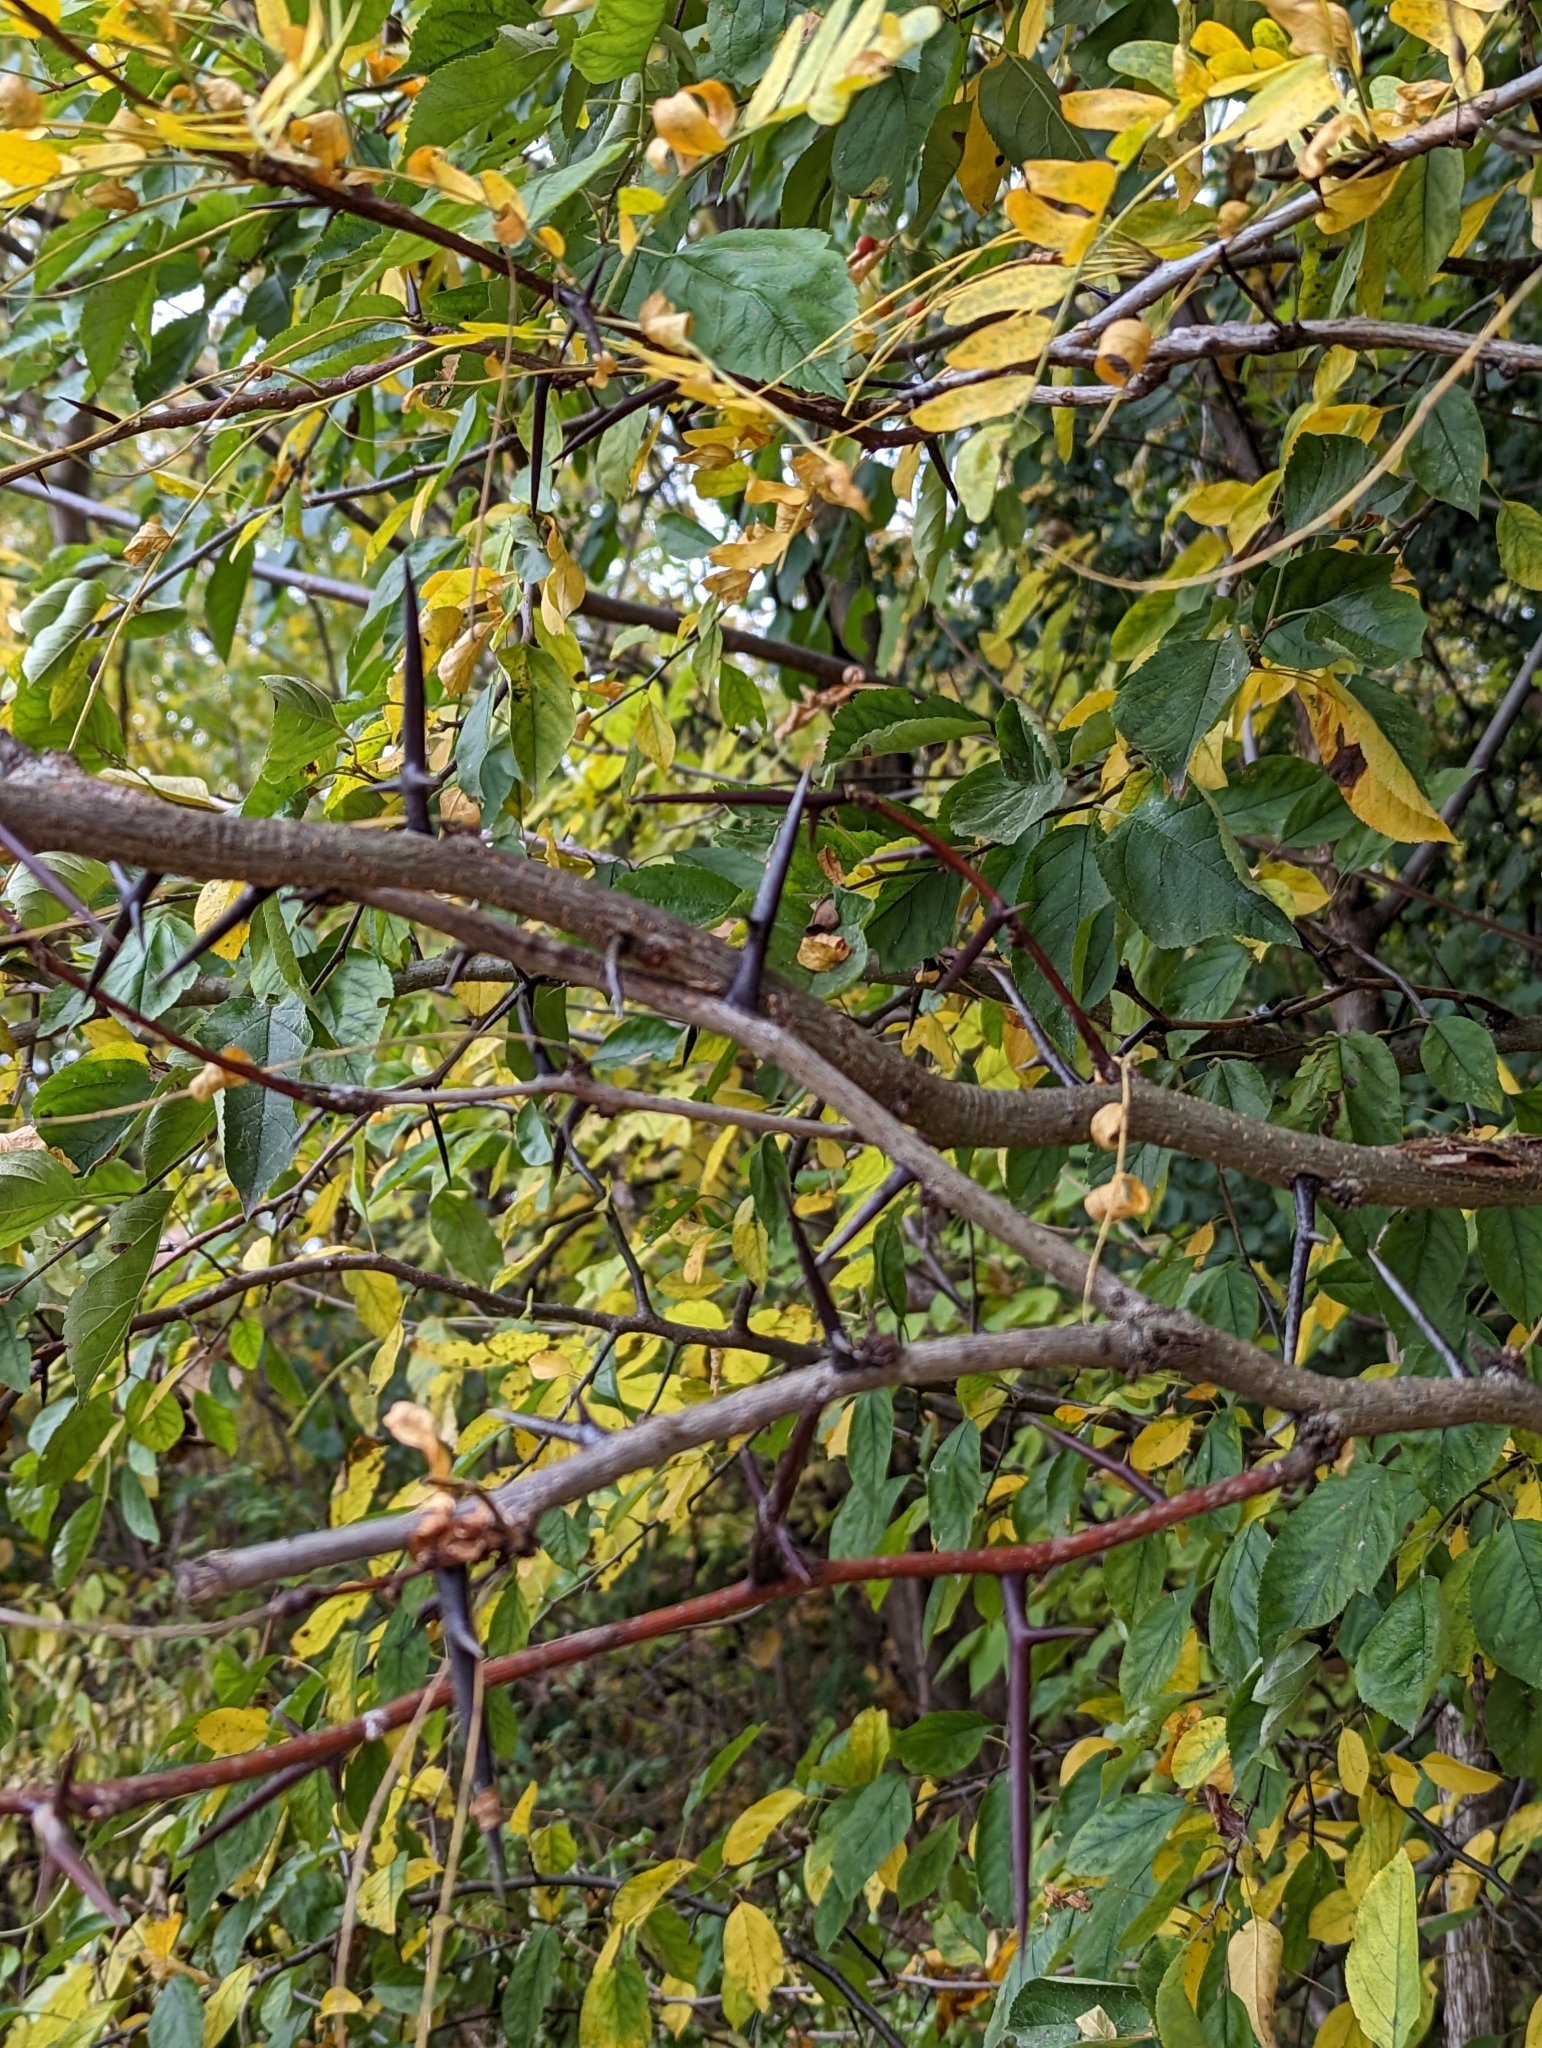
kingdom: Plantae
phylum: Tracheophyta
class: Magnoliopsida
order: Fabales
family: Fabaceae
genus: Gleditsia
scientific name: Gleditsia triacanthos
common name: Common honeylocust
